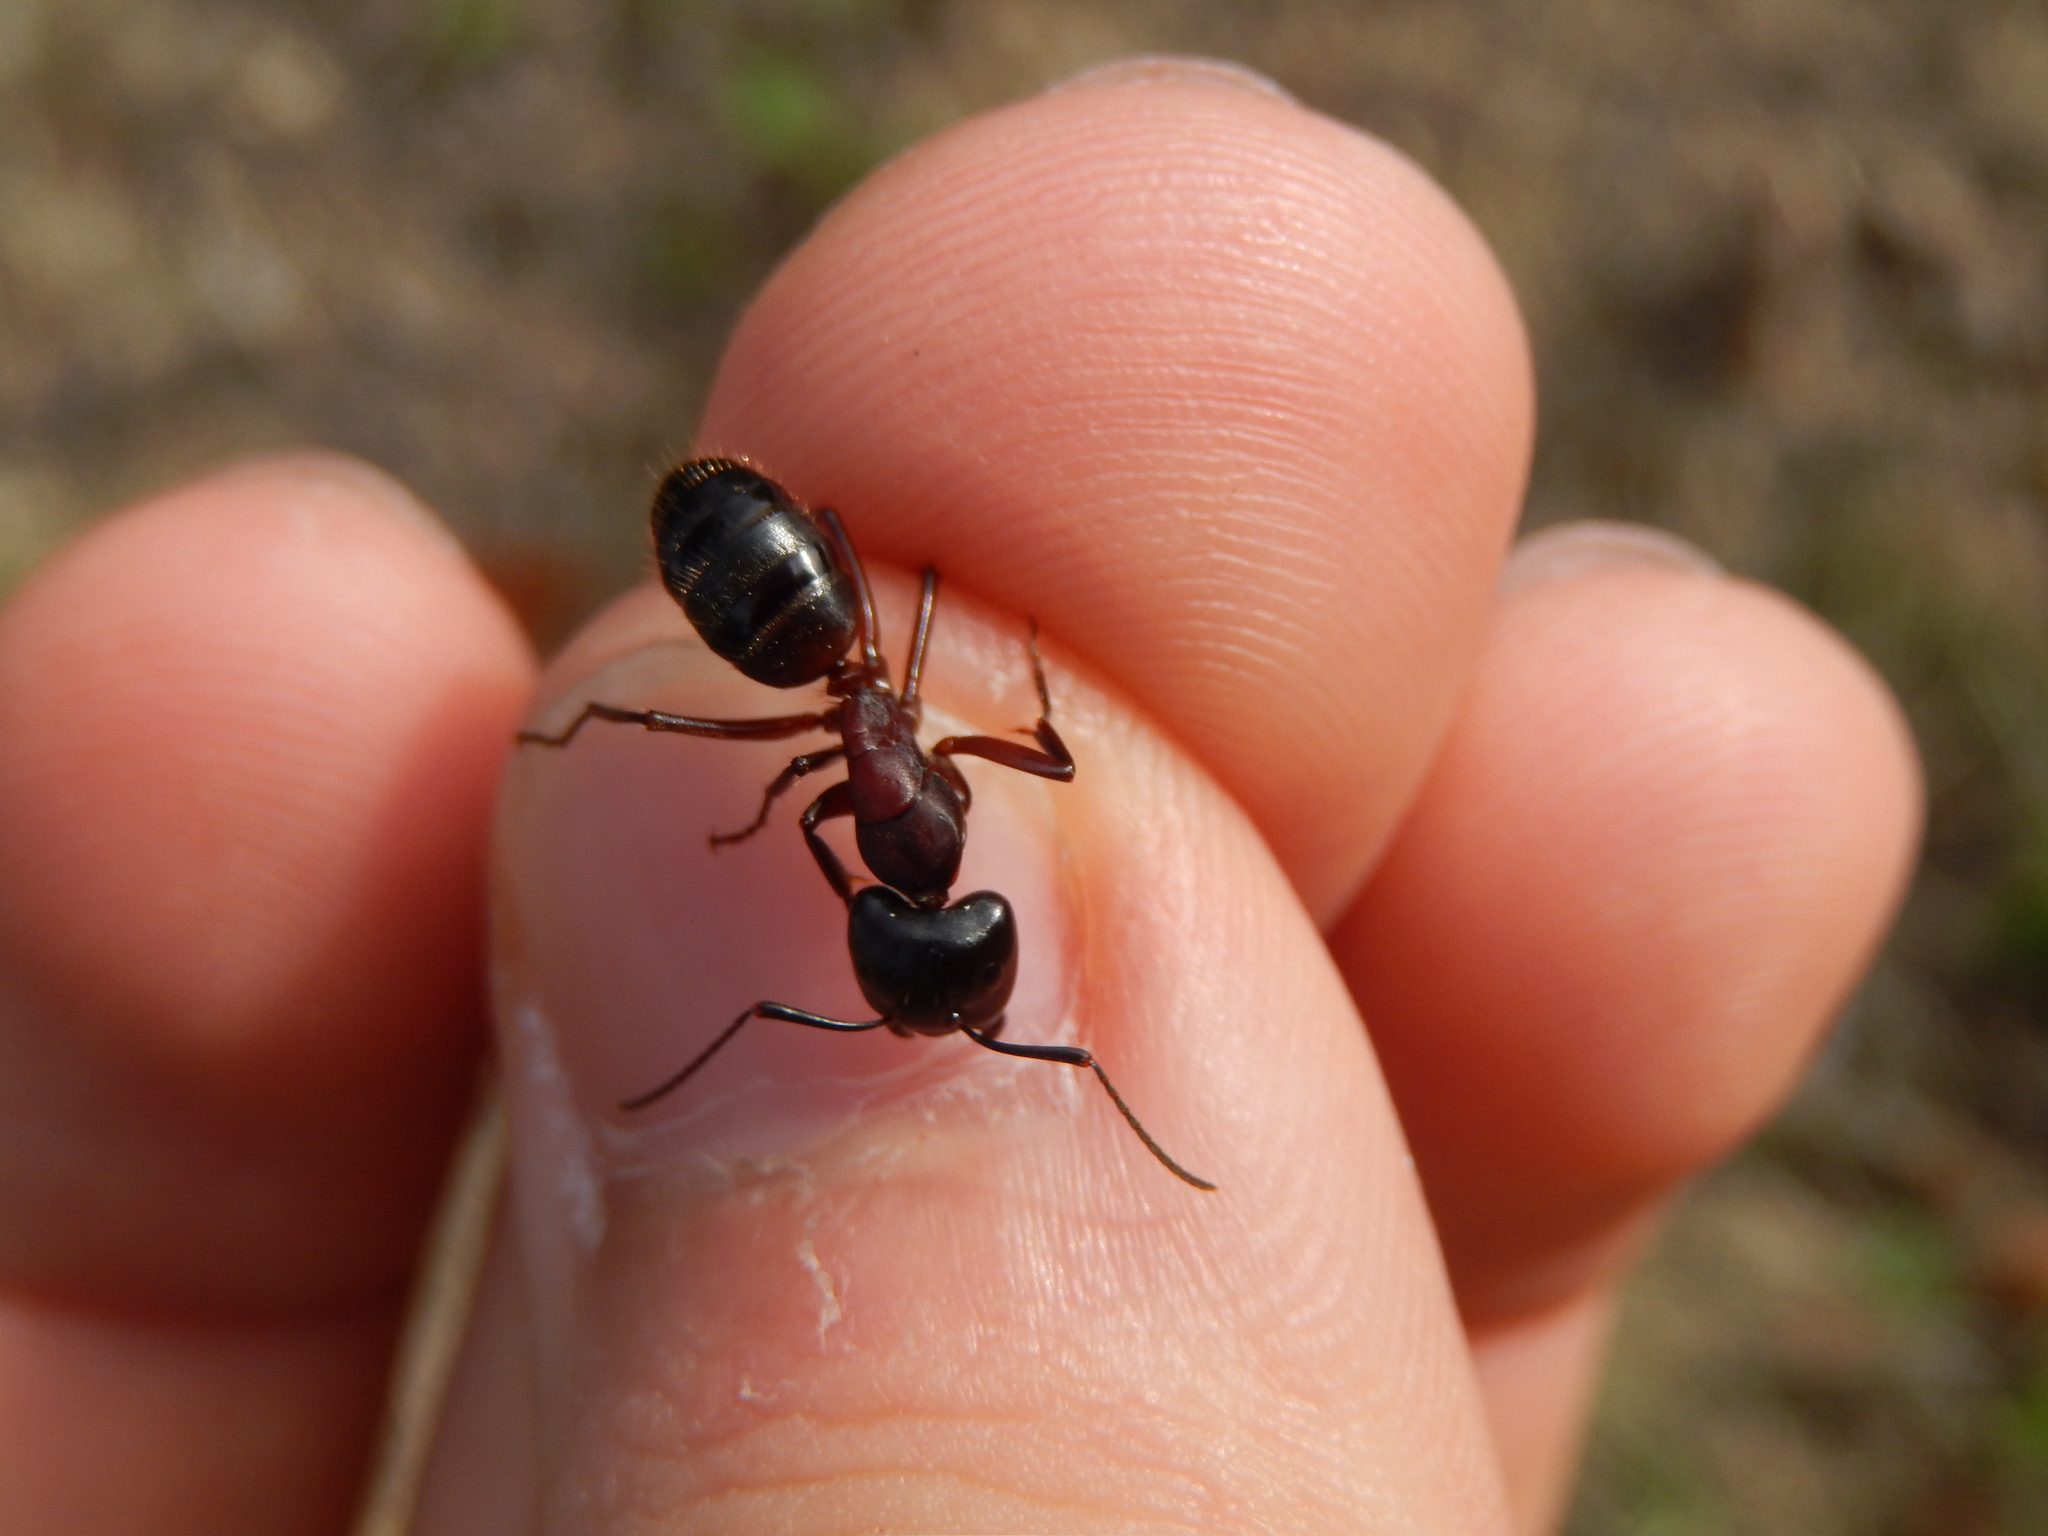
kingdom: Animalia
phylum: Arthropoda
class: Insecta
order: Hymenoptera
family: Formicidae
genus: Camponotus
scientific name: Camponotus ligniperdus
